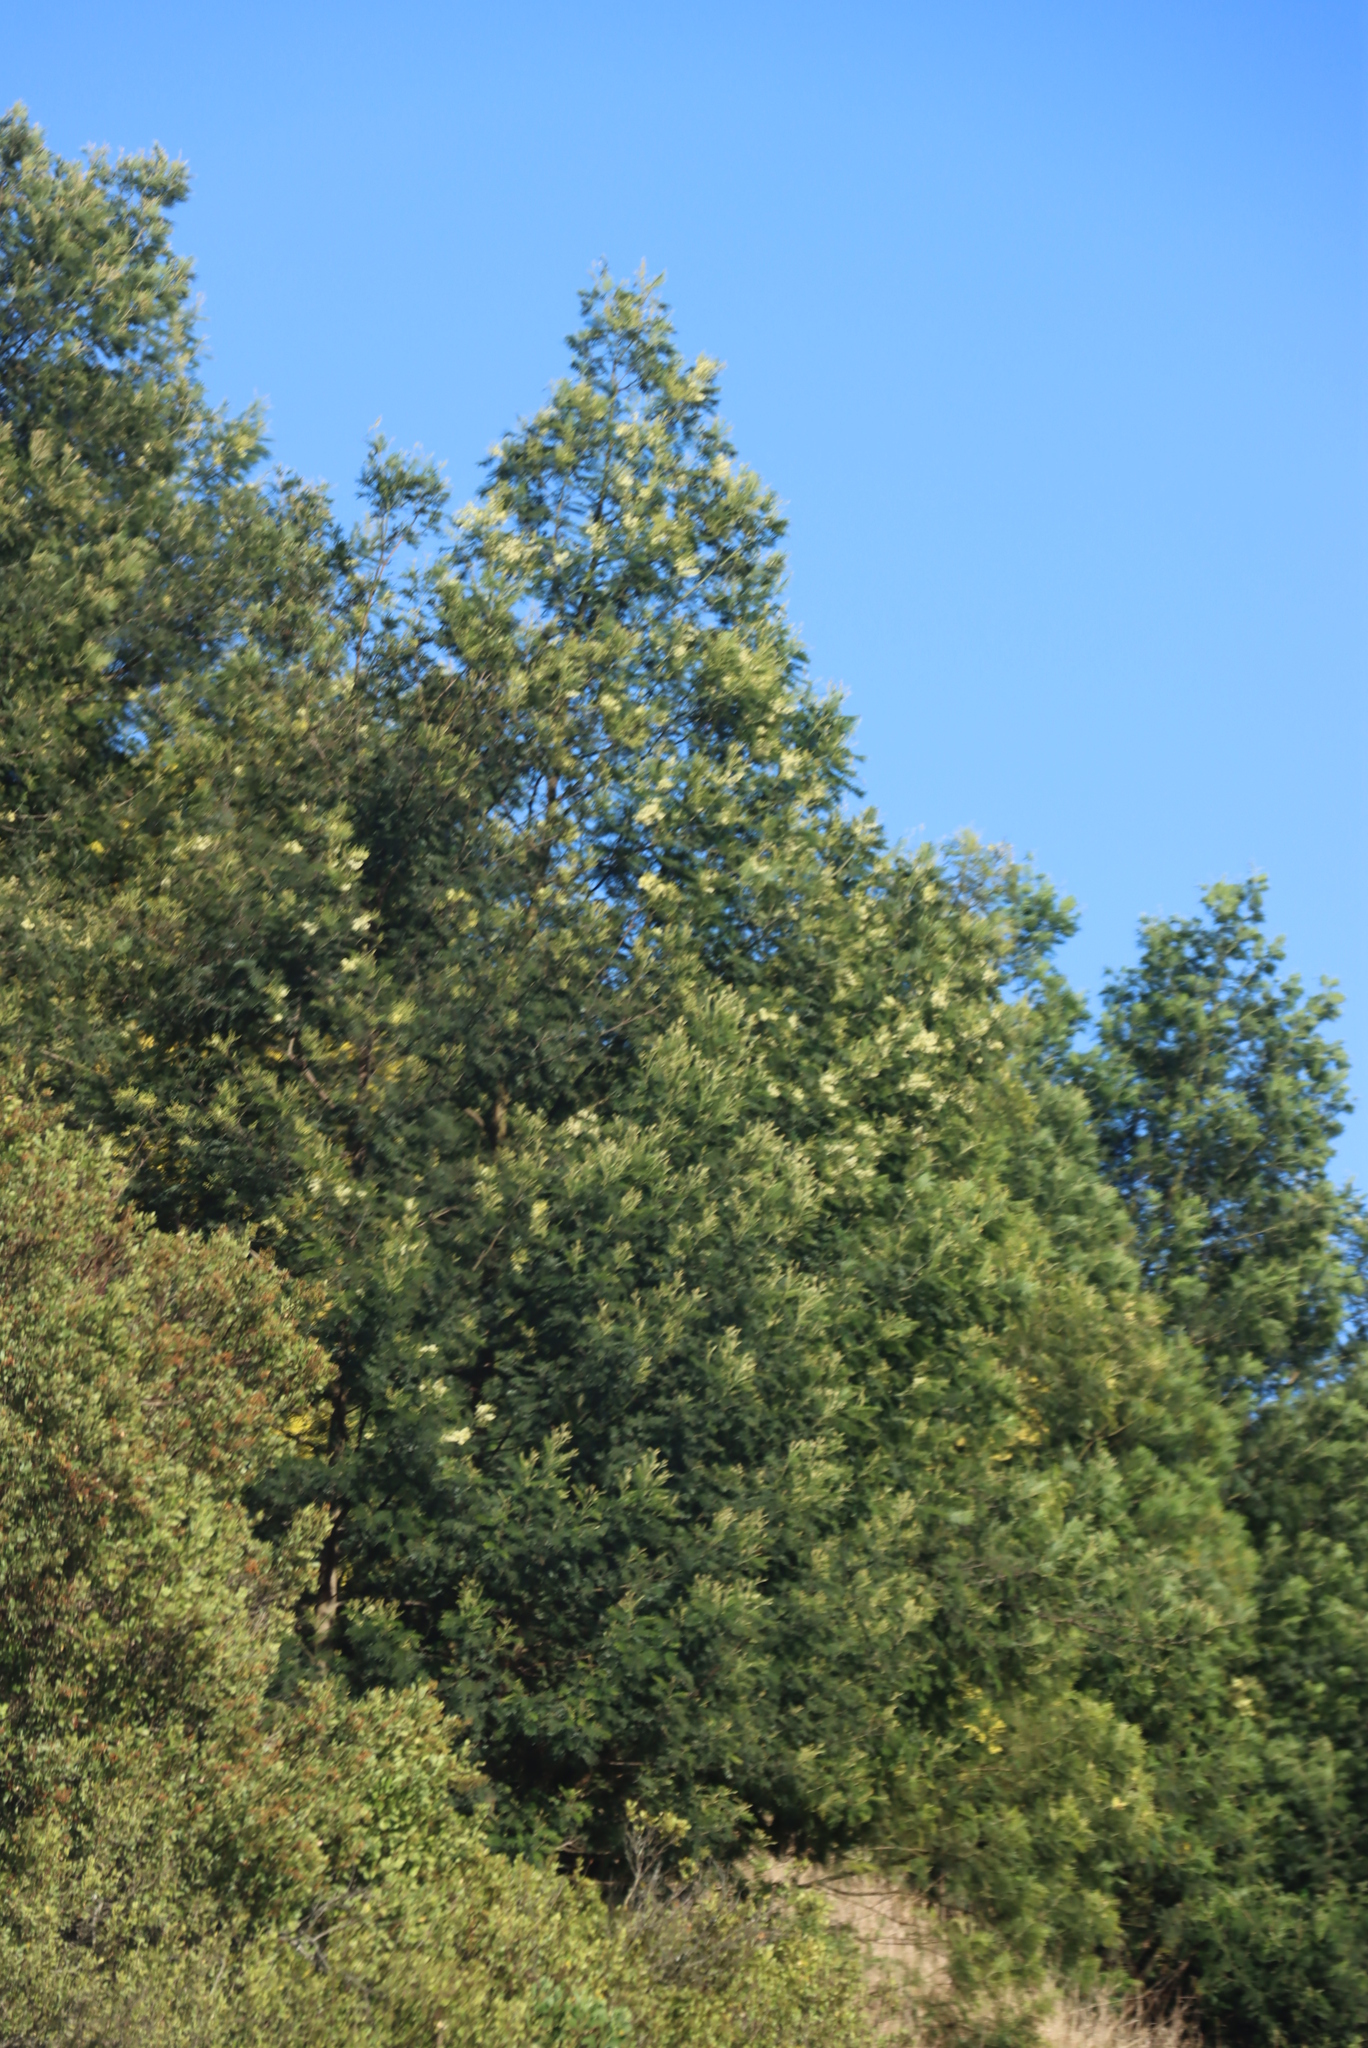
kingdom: Plantae
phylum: Tracheophyta
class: Magnoliopsida
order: Fabales
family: Fabaceae
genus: Acacia
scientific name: Acacia mearnsii
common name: Black wattle
